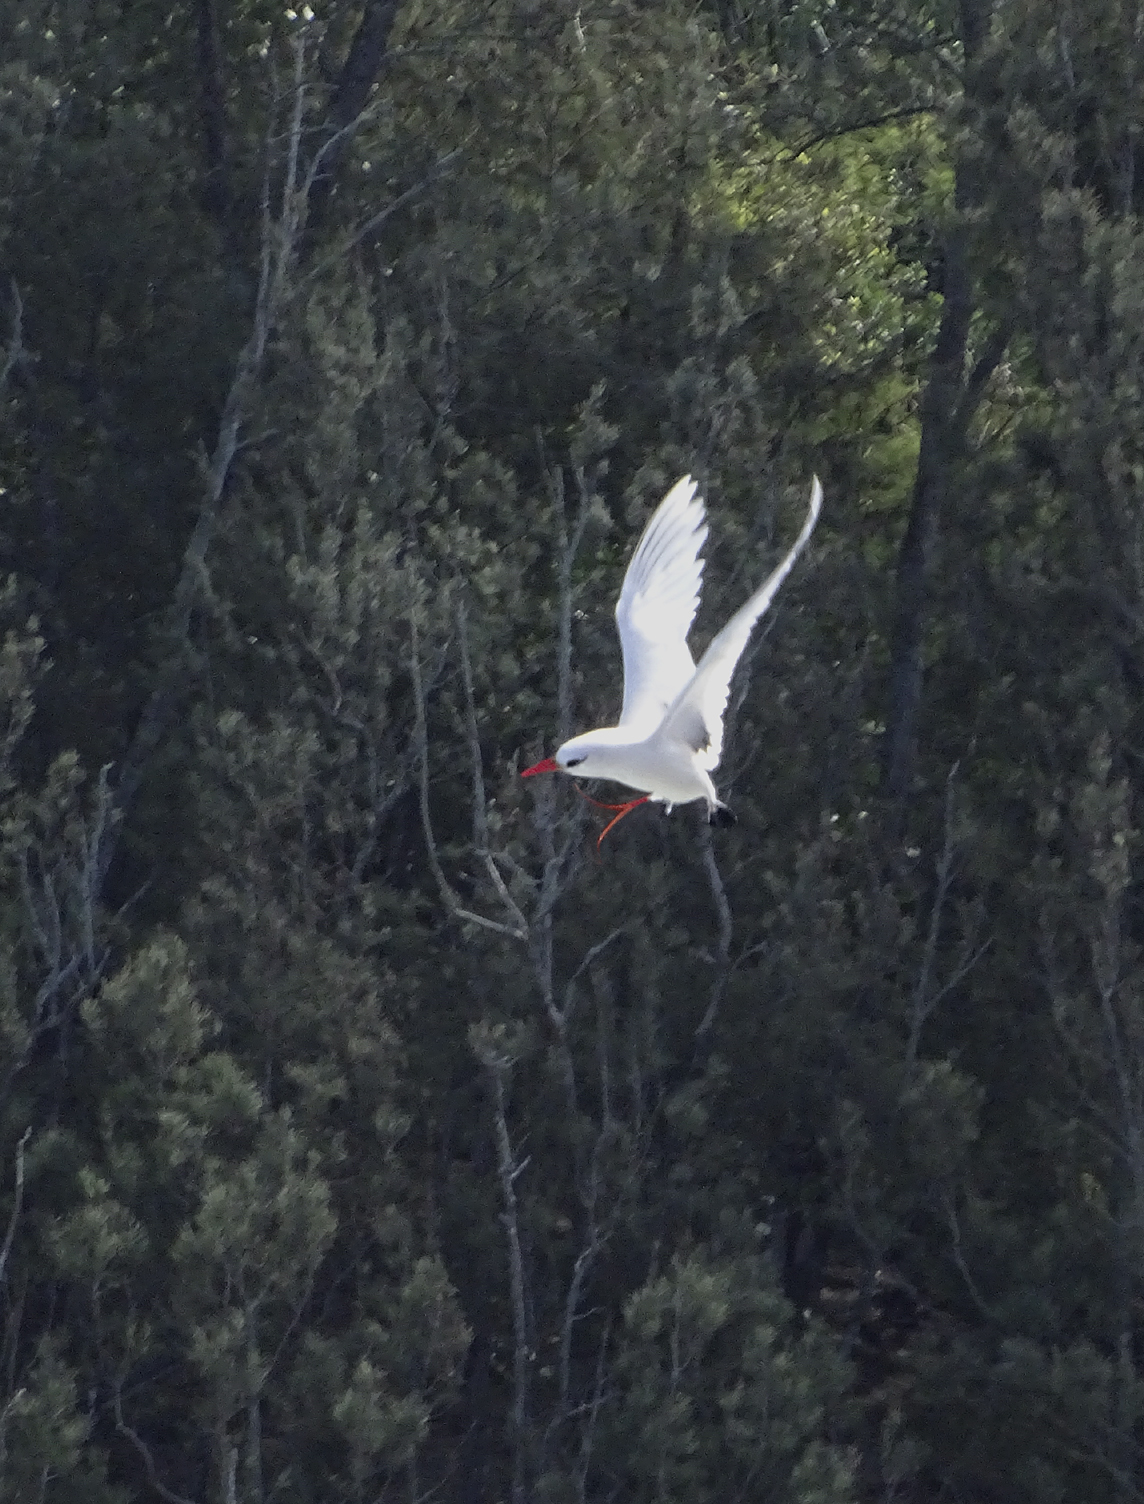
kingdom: Animalia
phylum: Chordata
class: Aves
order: Phaethontiformes
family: Phaethontidae
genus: Phaethon
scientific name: Phaethon rubricauda
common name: Red-tailed tropicbird
